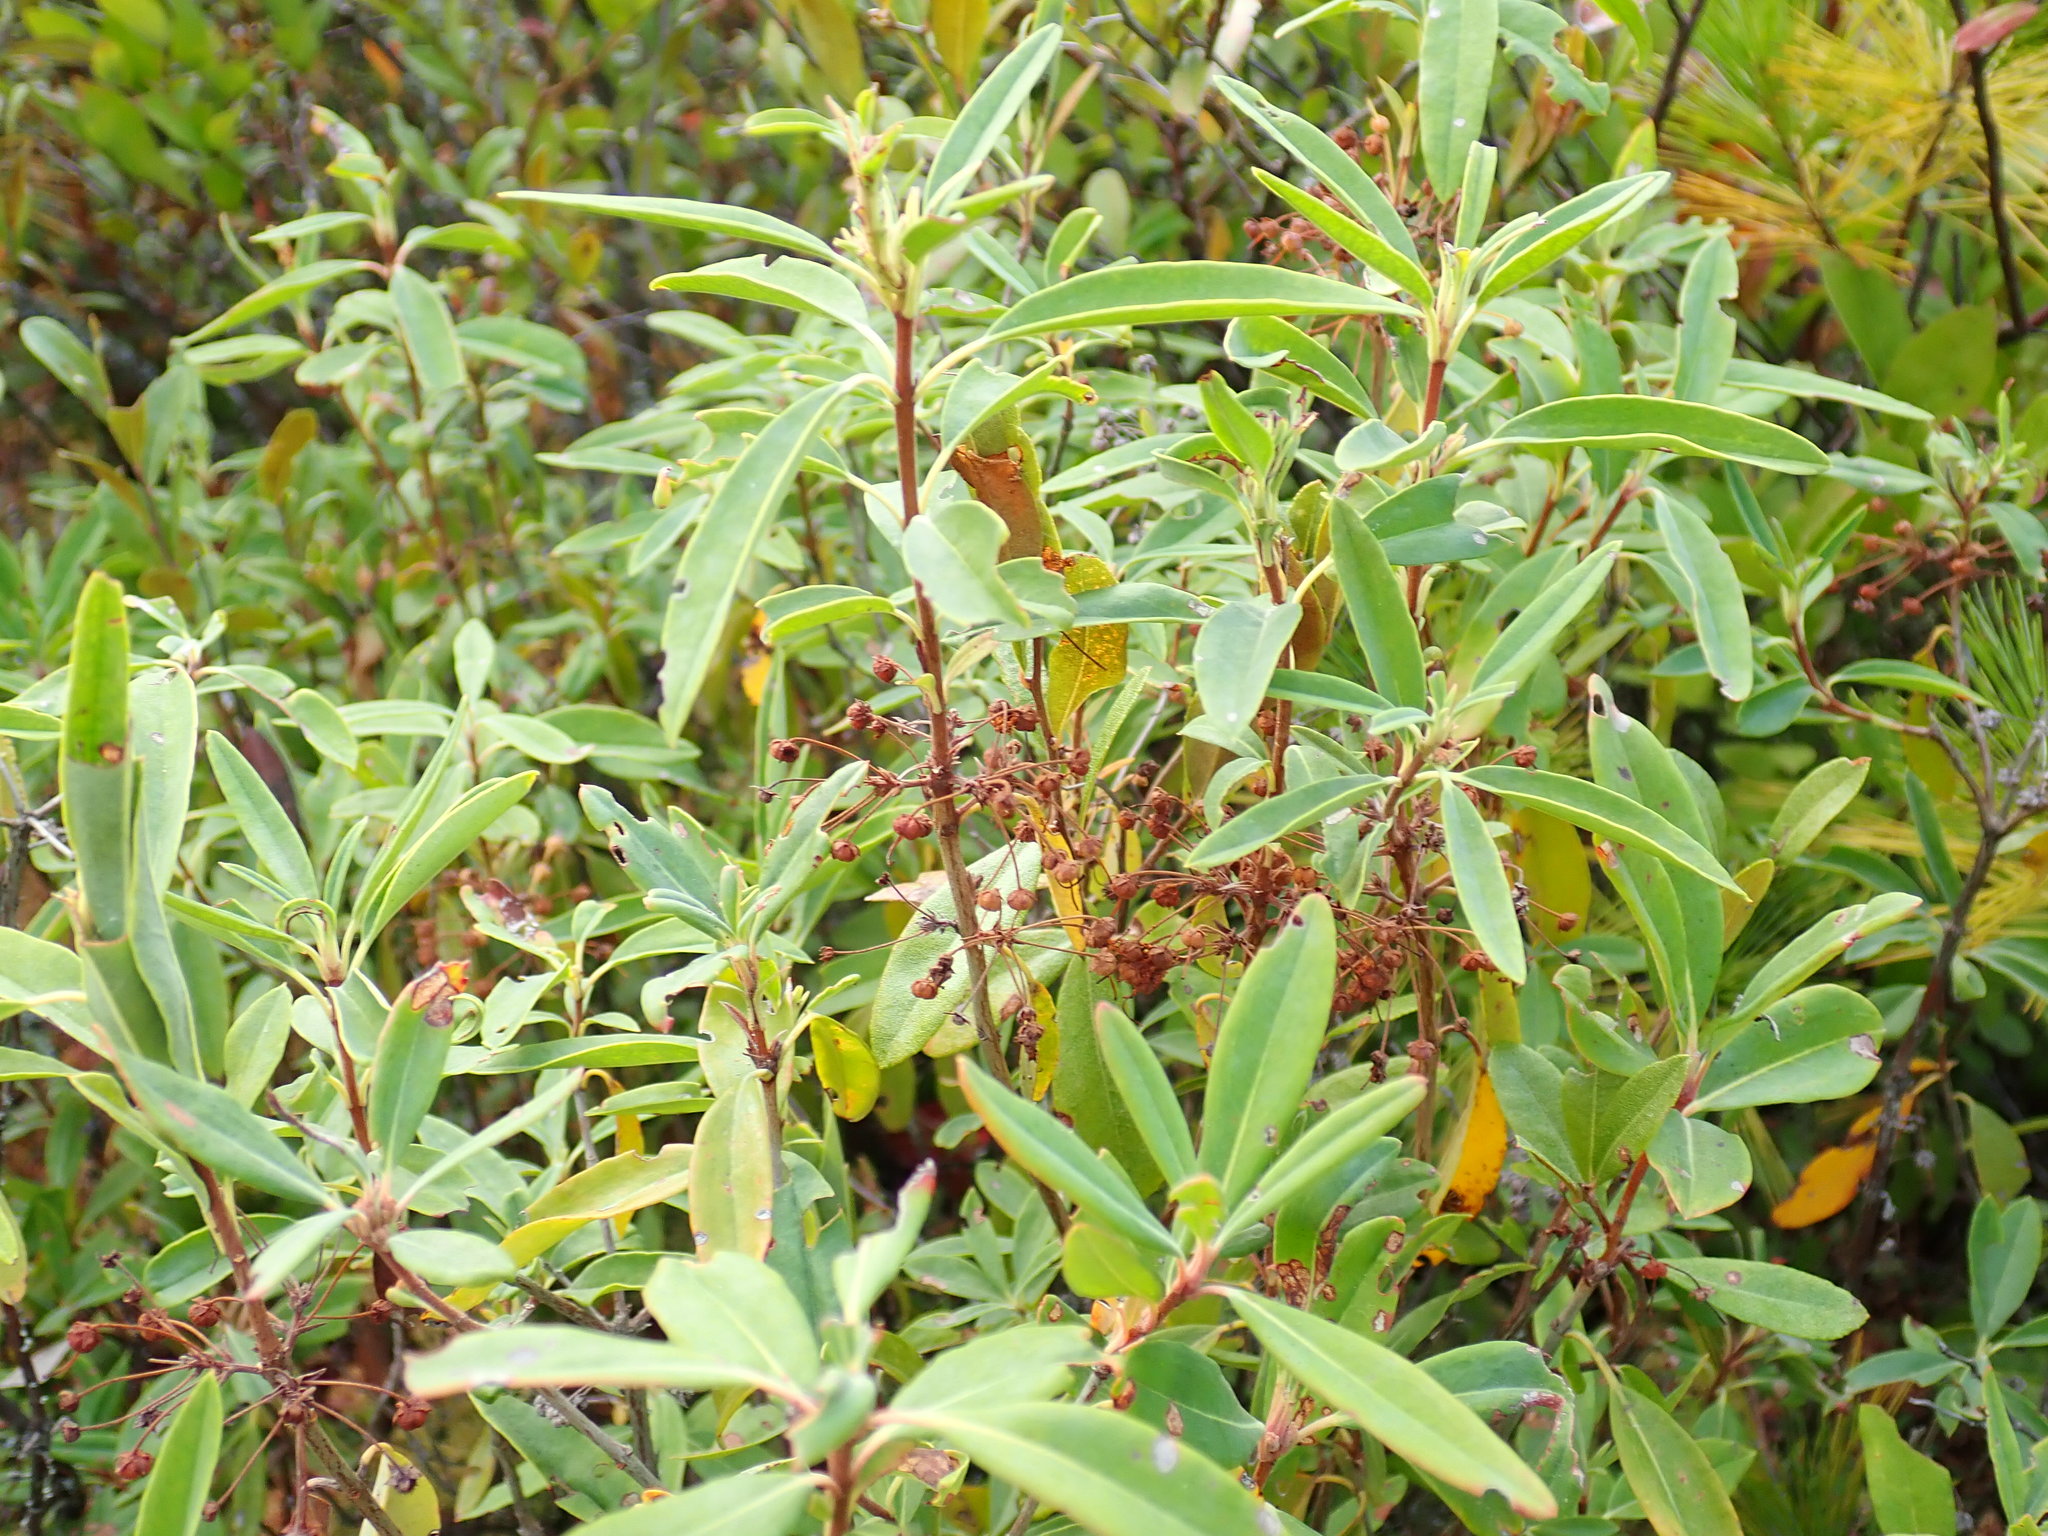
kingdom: Plantae
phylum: Tracheophyta
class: Magnoliopsida
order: Ericales
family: Ericaceae
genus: Kalmia
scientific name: Kalmia angustifolia
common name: Sheep-laurel
